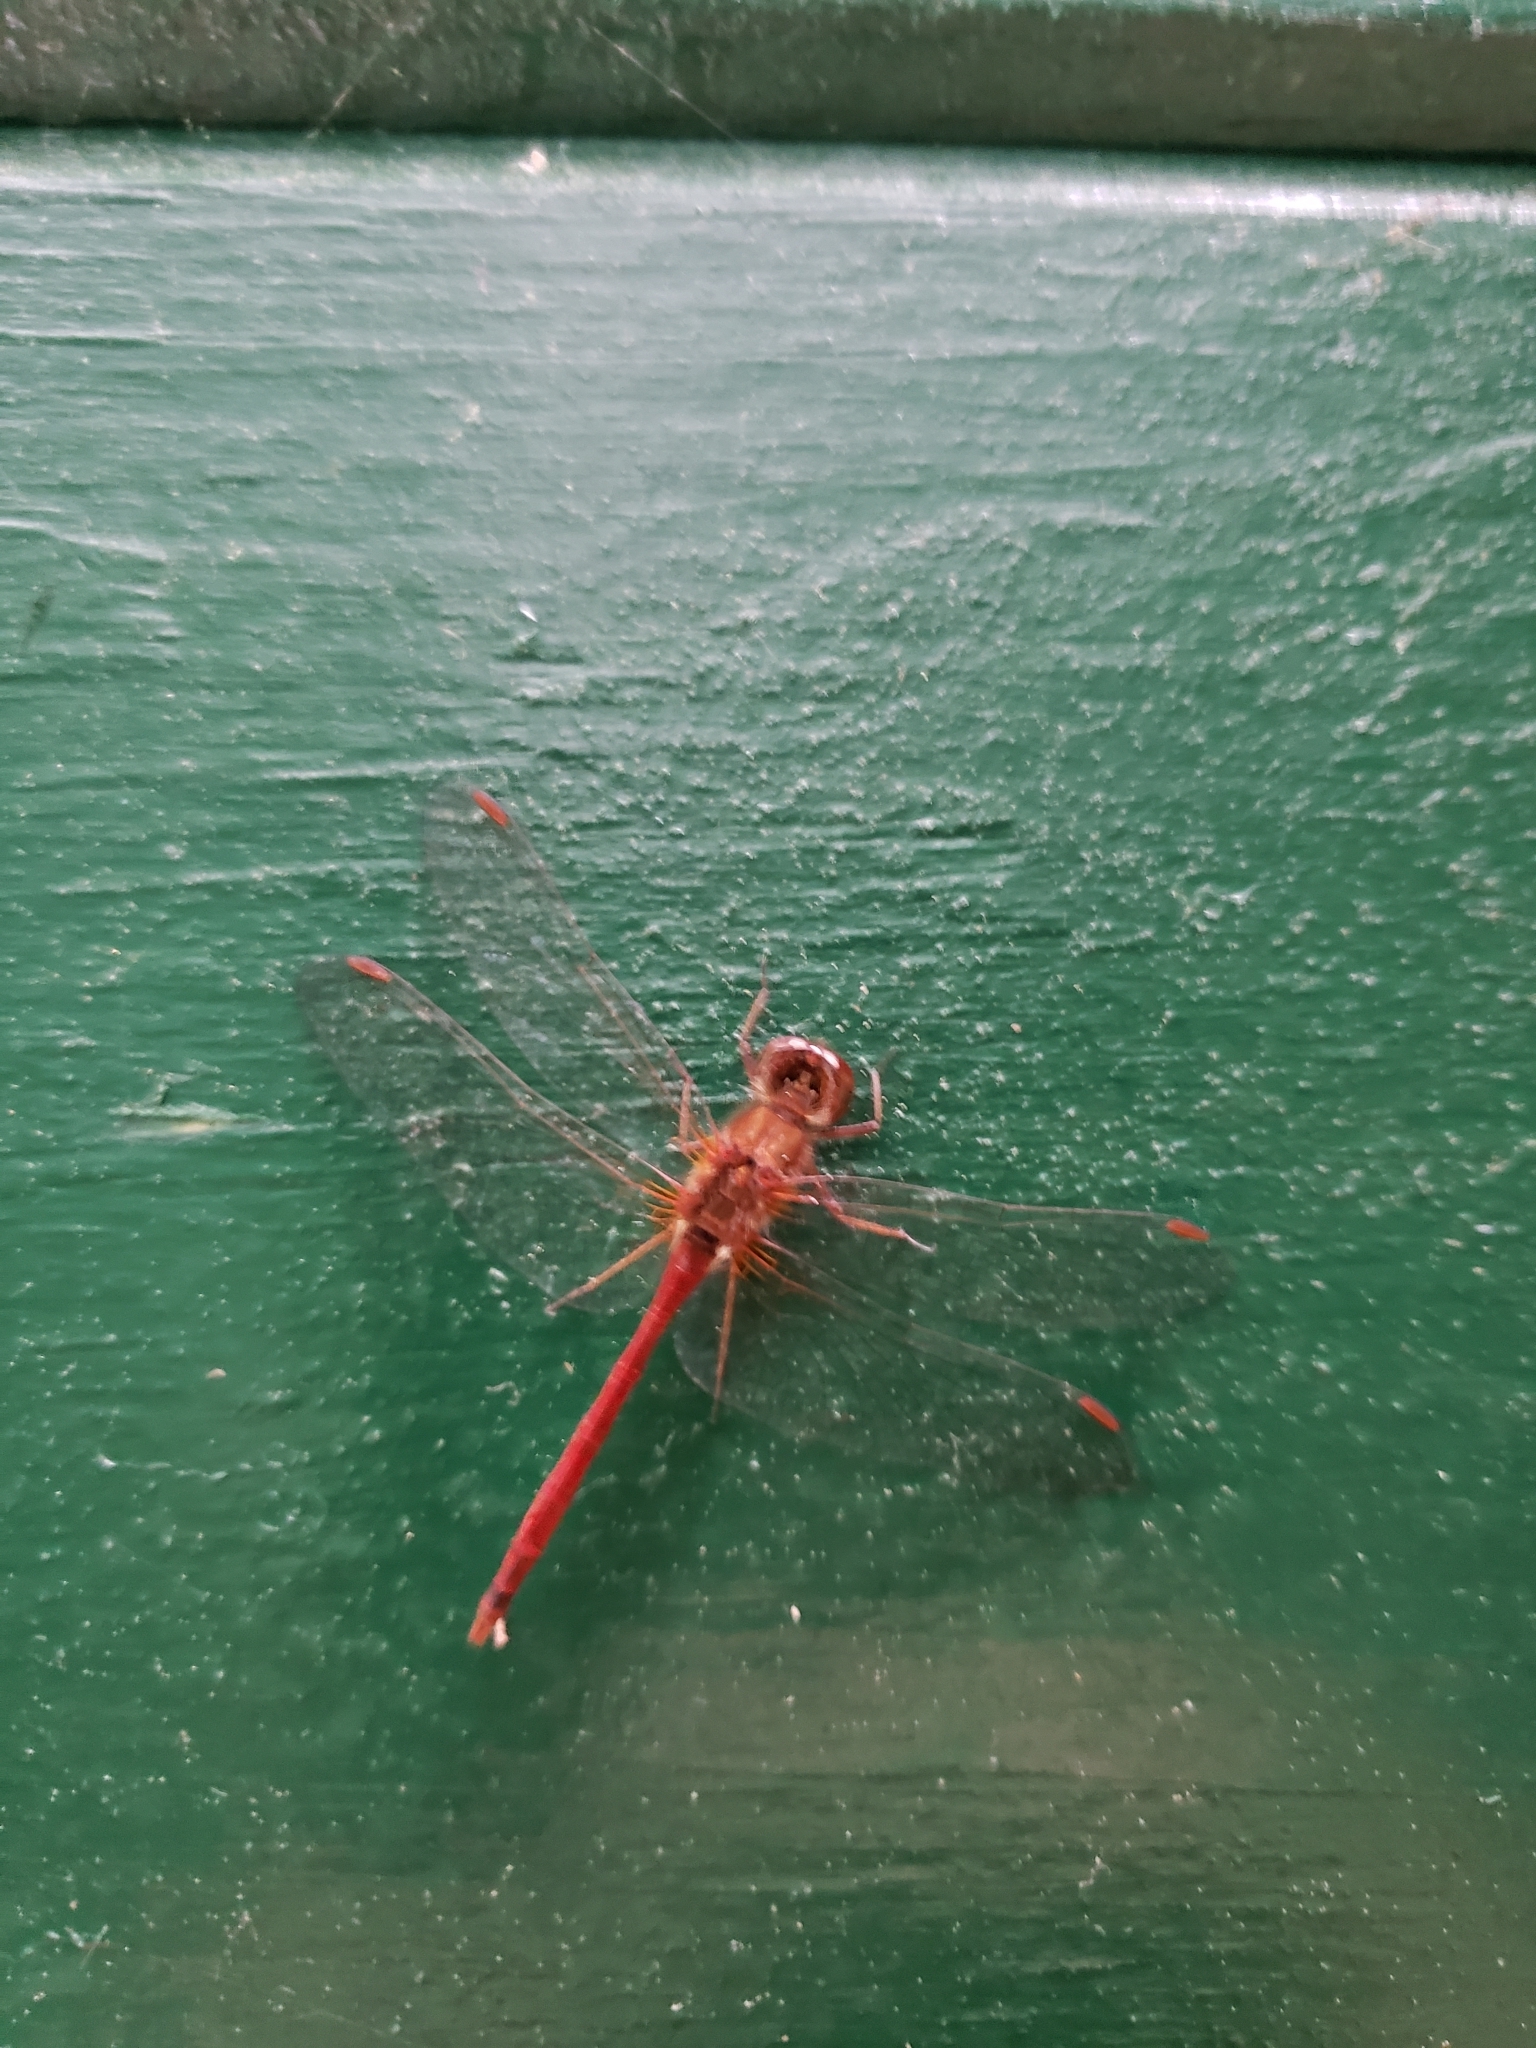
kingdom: Animalia
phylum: Arthropoda
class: Insecta
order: Odonata
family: Libellulidae
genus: Sympetrum
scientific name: Sympetrum vicinum
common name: Autumn meadowhawk
